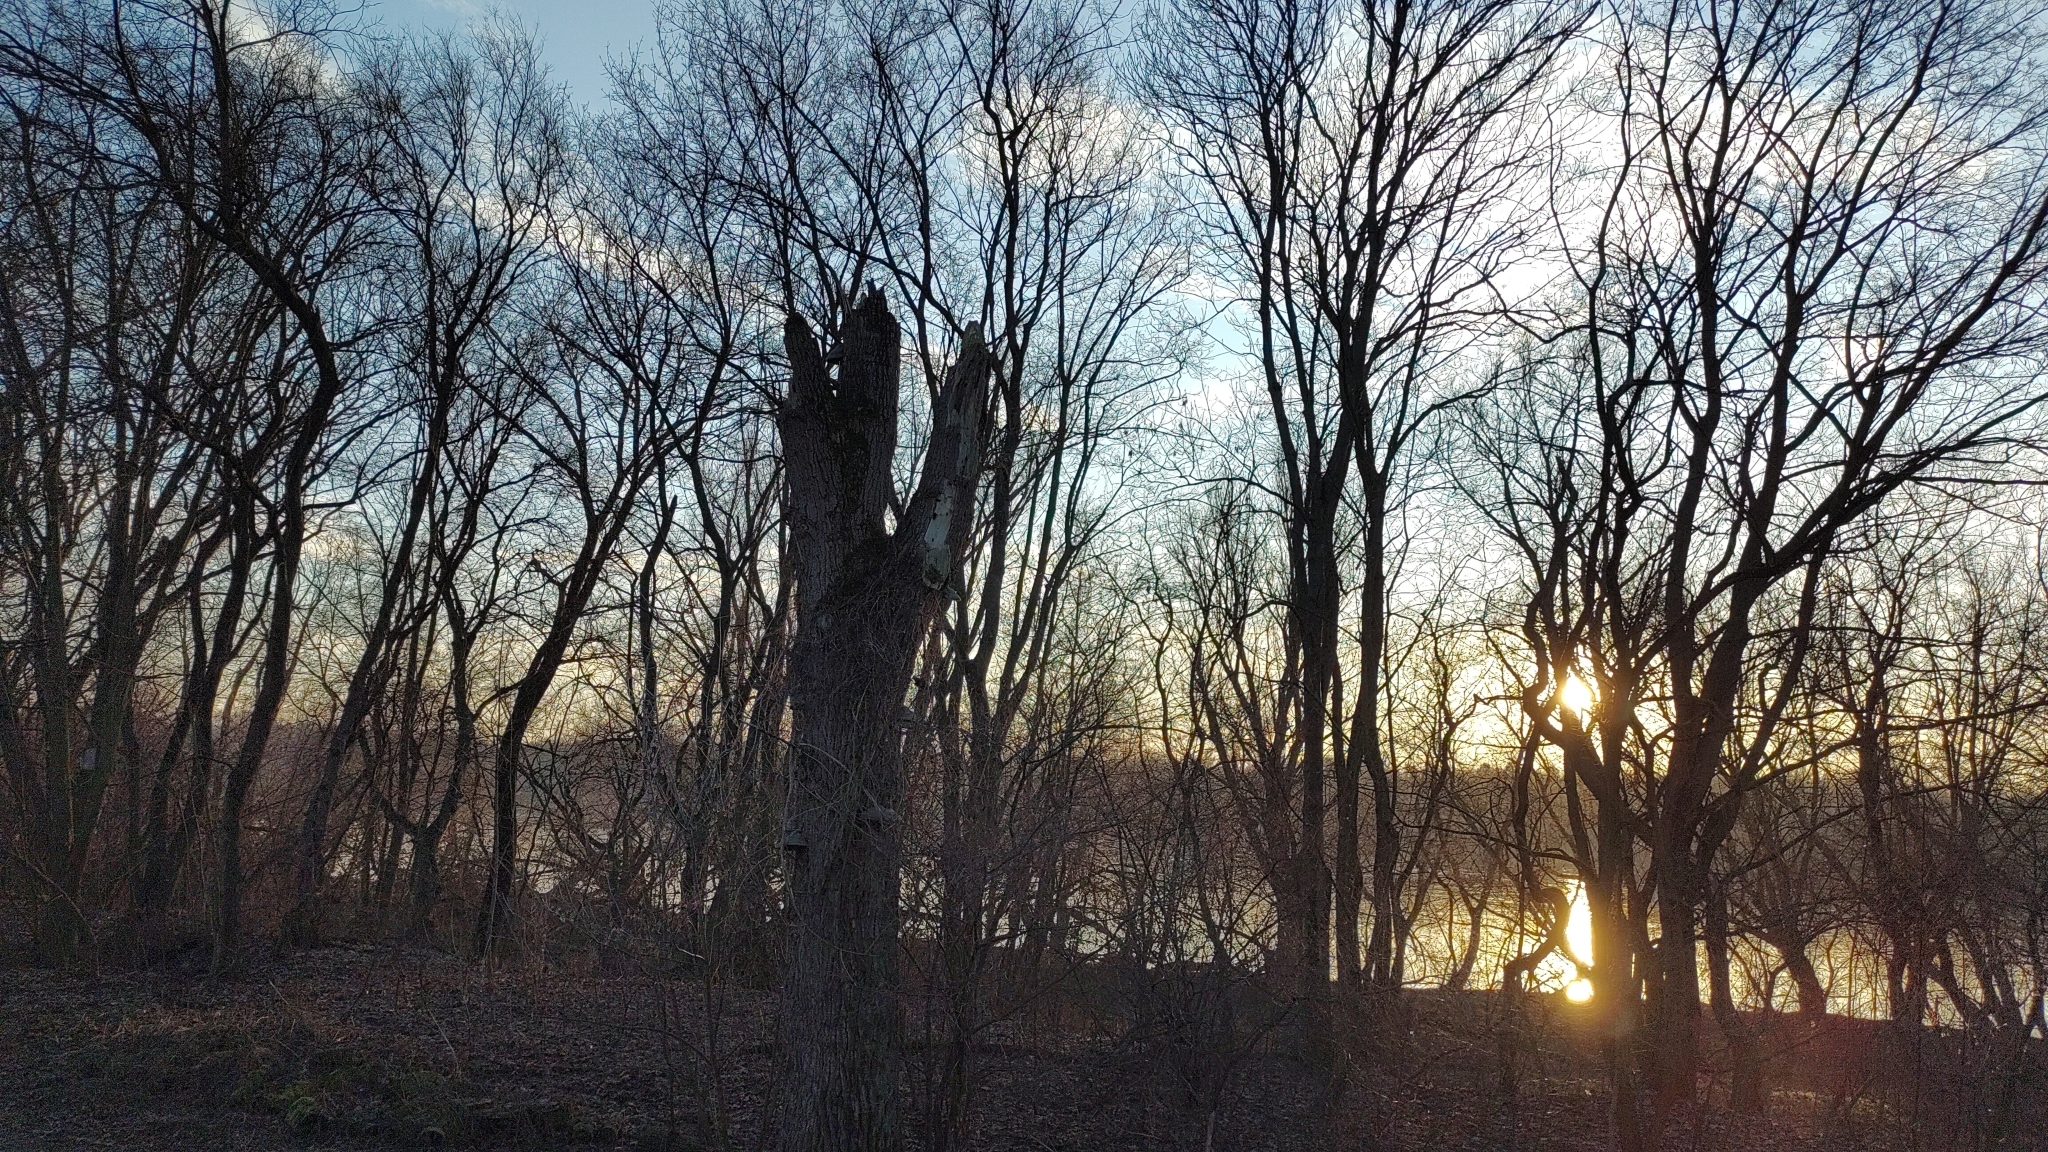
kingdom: Animalia
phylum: Chordata
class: Aves
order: Piciformes
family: Picidae
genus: Dryocopus
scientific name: Dryocopus martius
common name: Black woodpecker
